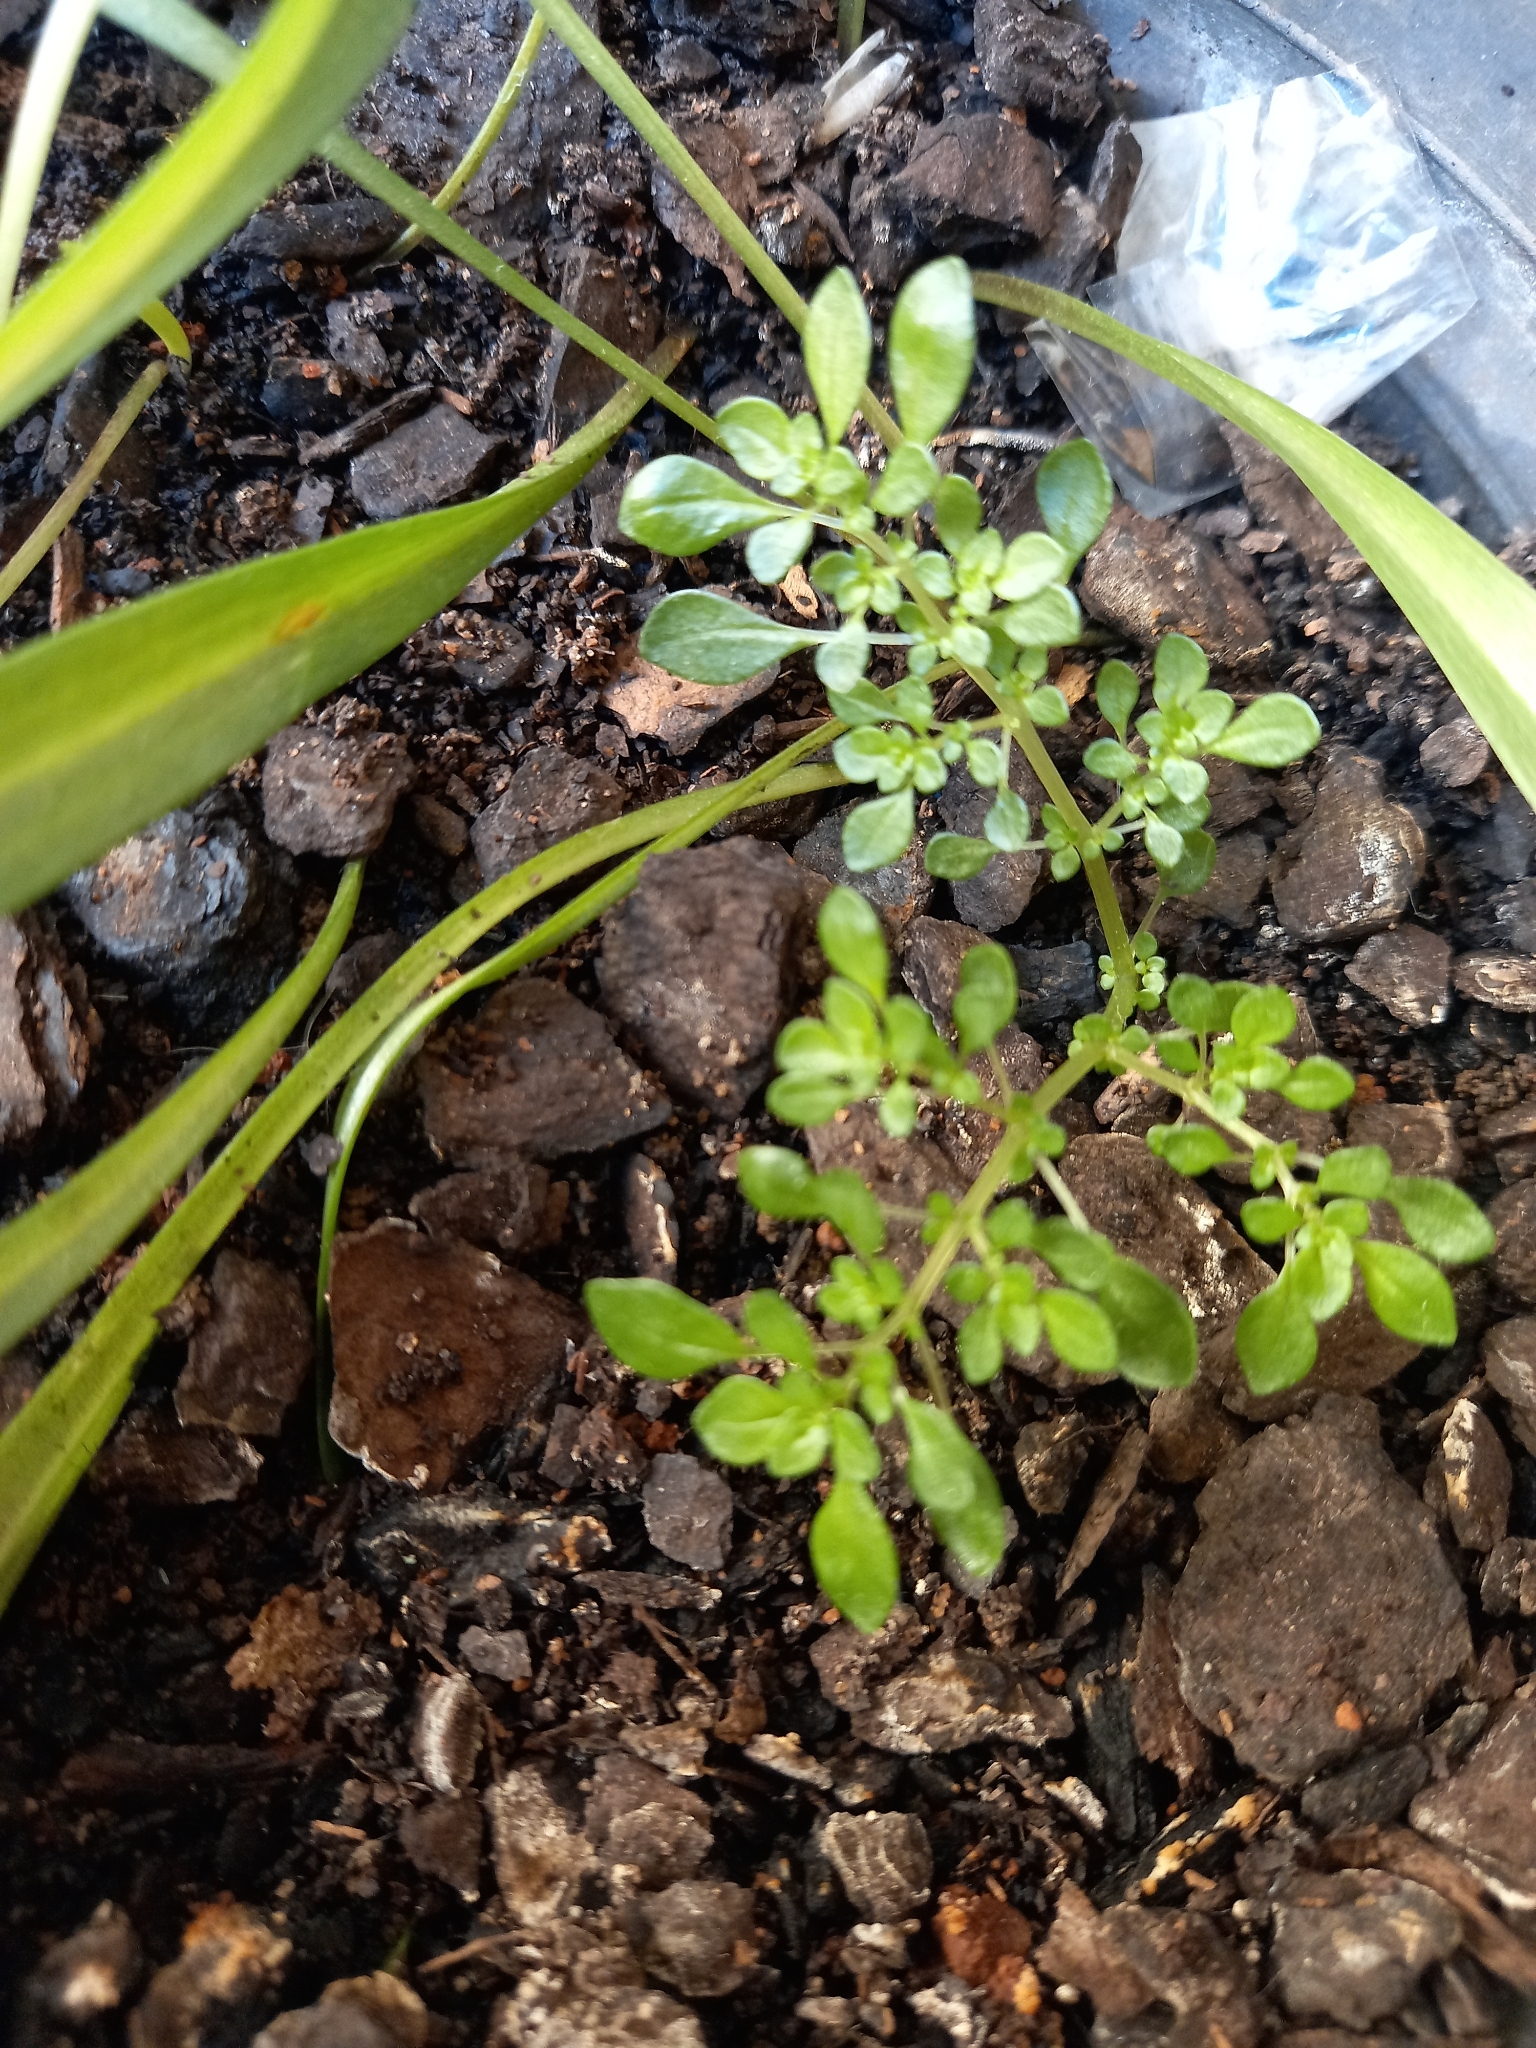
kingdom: Plantae
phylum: Tracheophyta
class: Magnoliopsida
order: Rosales
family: Urticaceae
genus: Pilea
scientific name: Pilea microphylla
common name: Artillery-plant
